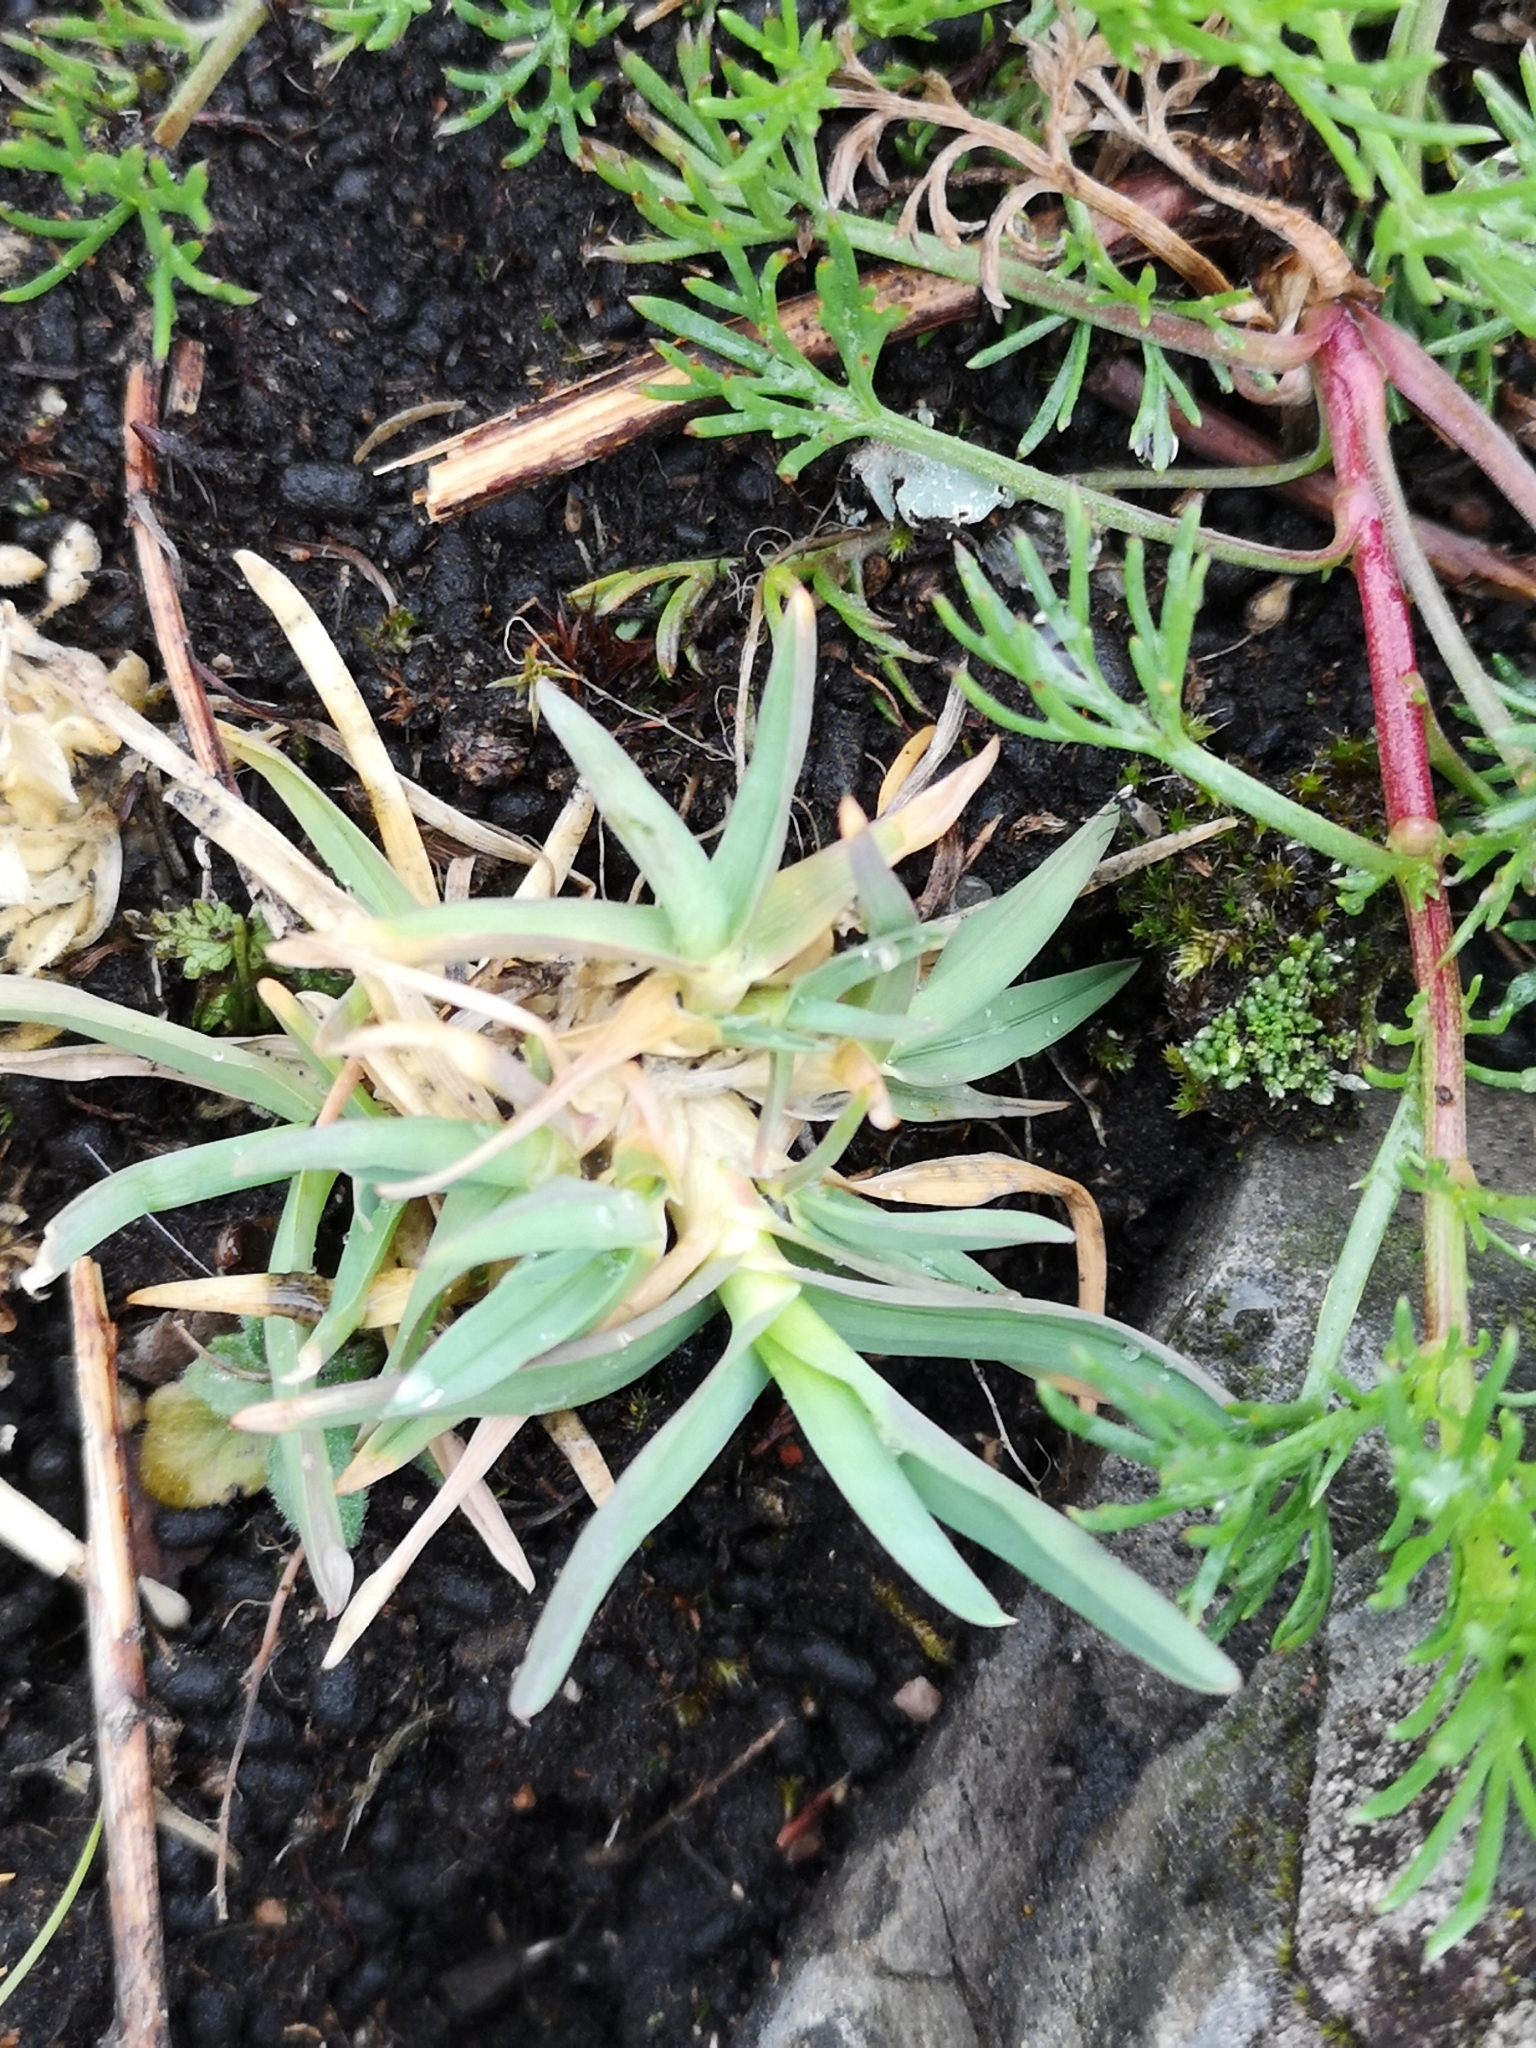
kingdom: Plantae
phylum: Tracheophyta
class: Liliopsida
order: Poales
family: Poaceae
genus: Poa
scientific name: Poa alpina
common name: Alpine bluegrass
